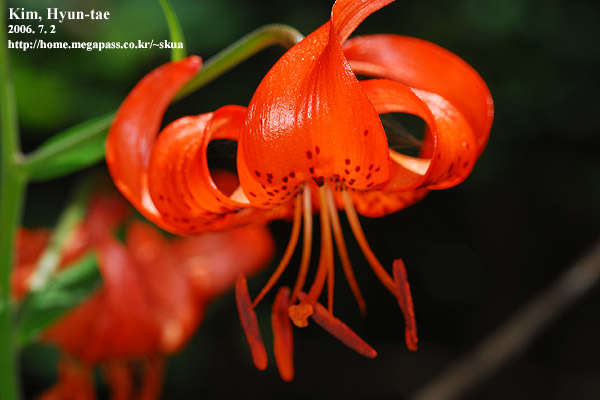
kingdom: Plantae
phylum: Tracheophyta
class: Liliopsida
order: Liliales
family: Liliaceae
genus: Lilium
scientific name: Lilium leichtlinii
